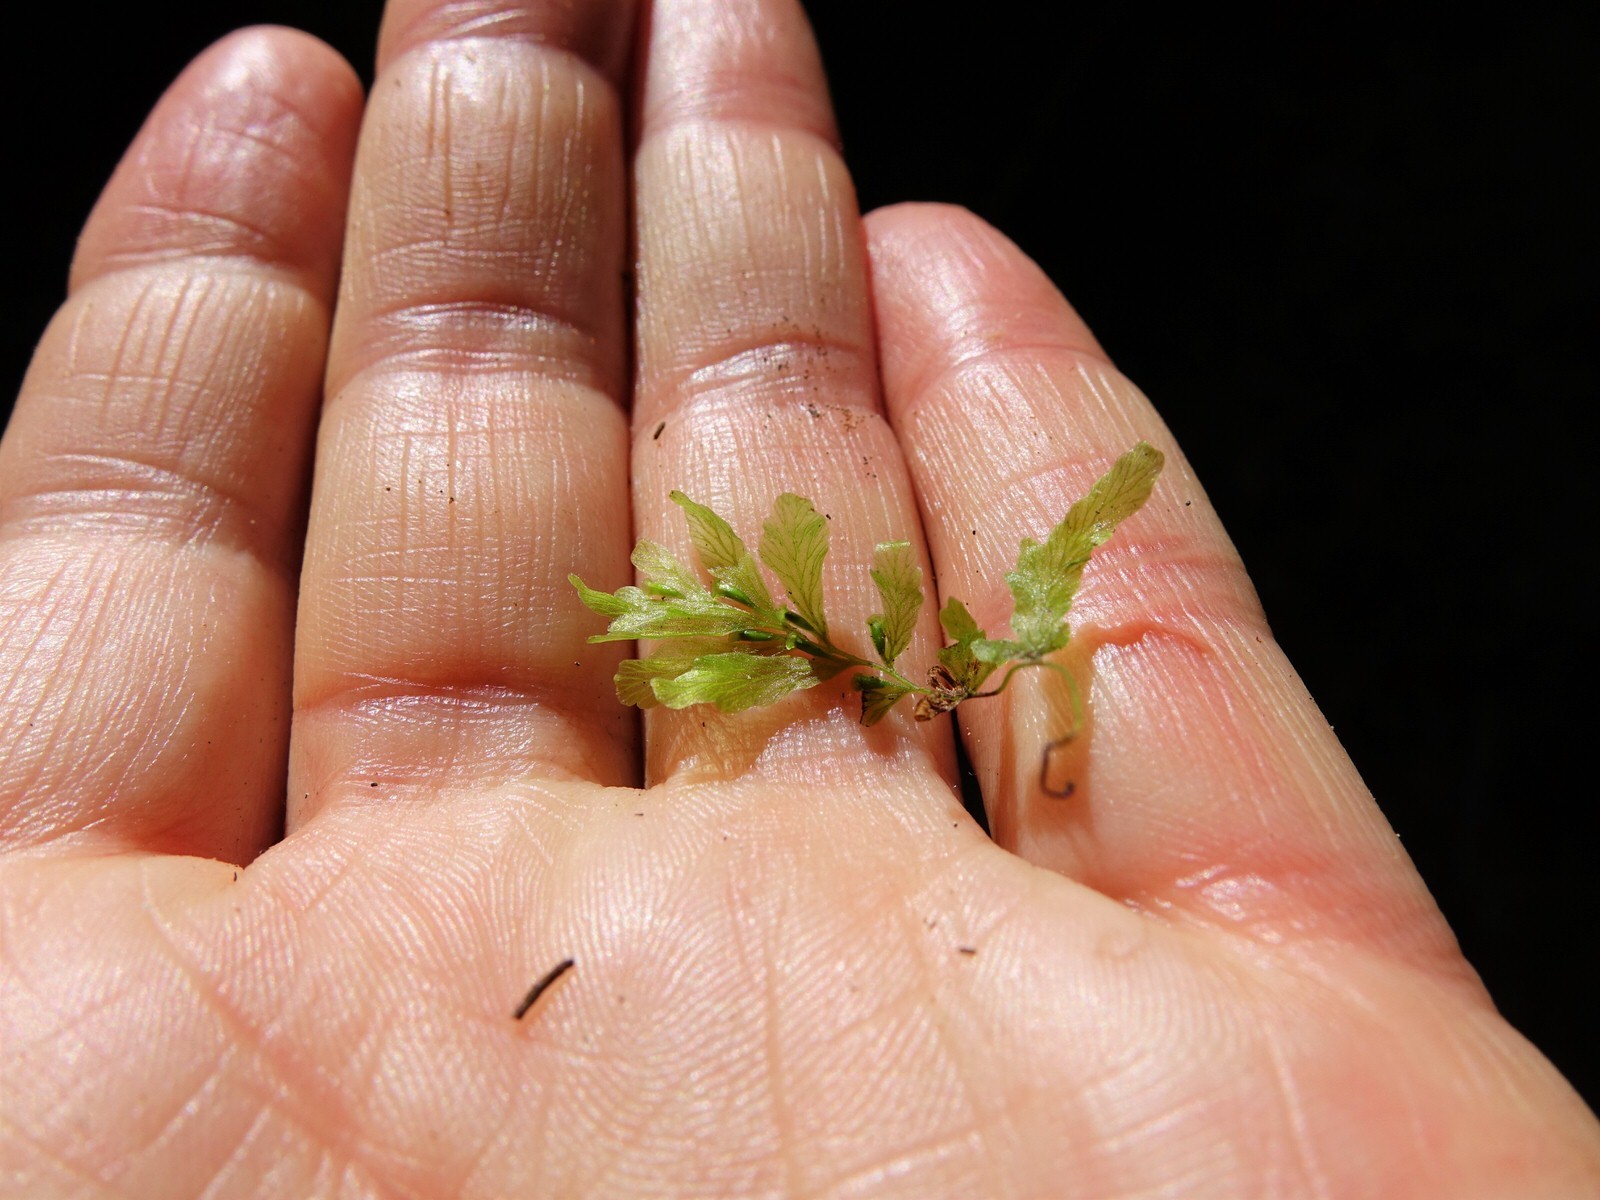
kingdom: Plantae
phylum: Tracheophyta
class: Polypodiopsida
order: Hymenophyllales
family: Hymenophyllaceae
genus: Polyphlebium
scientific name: Polyphlebium venosum
